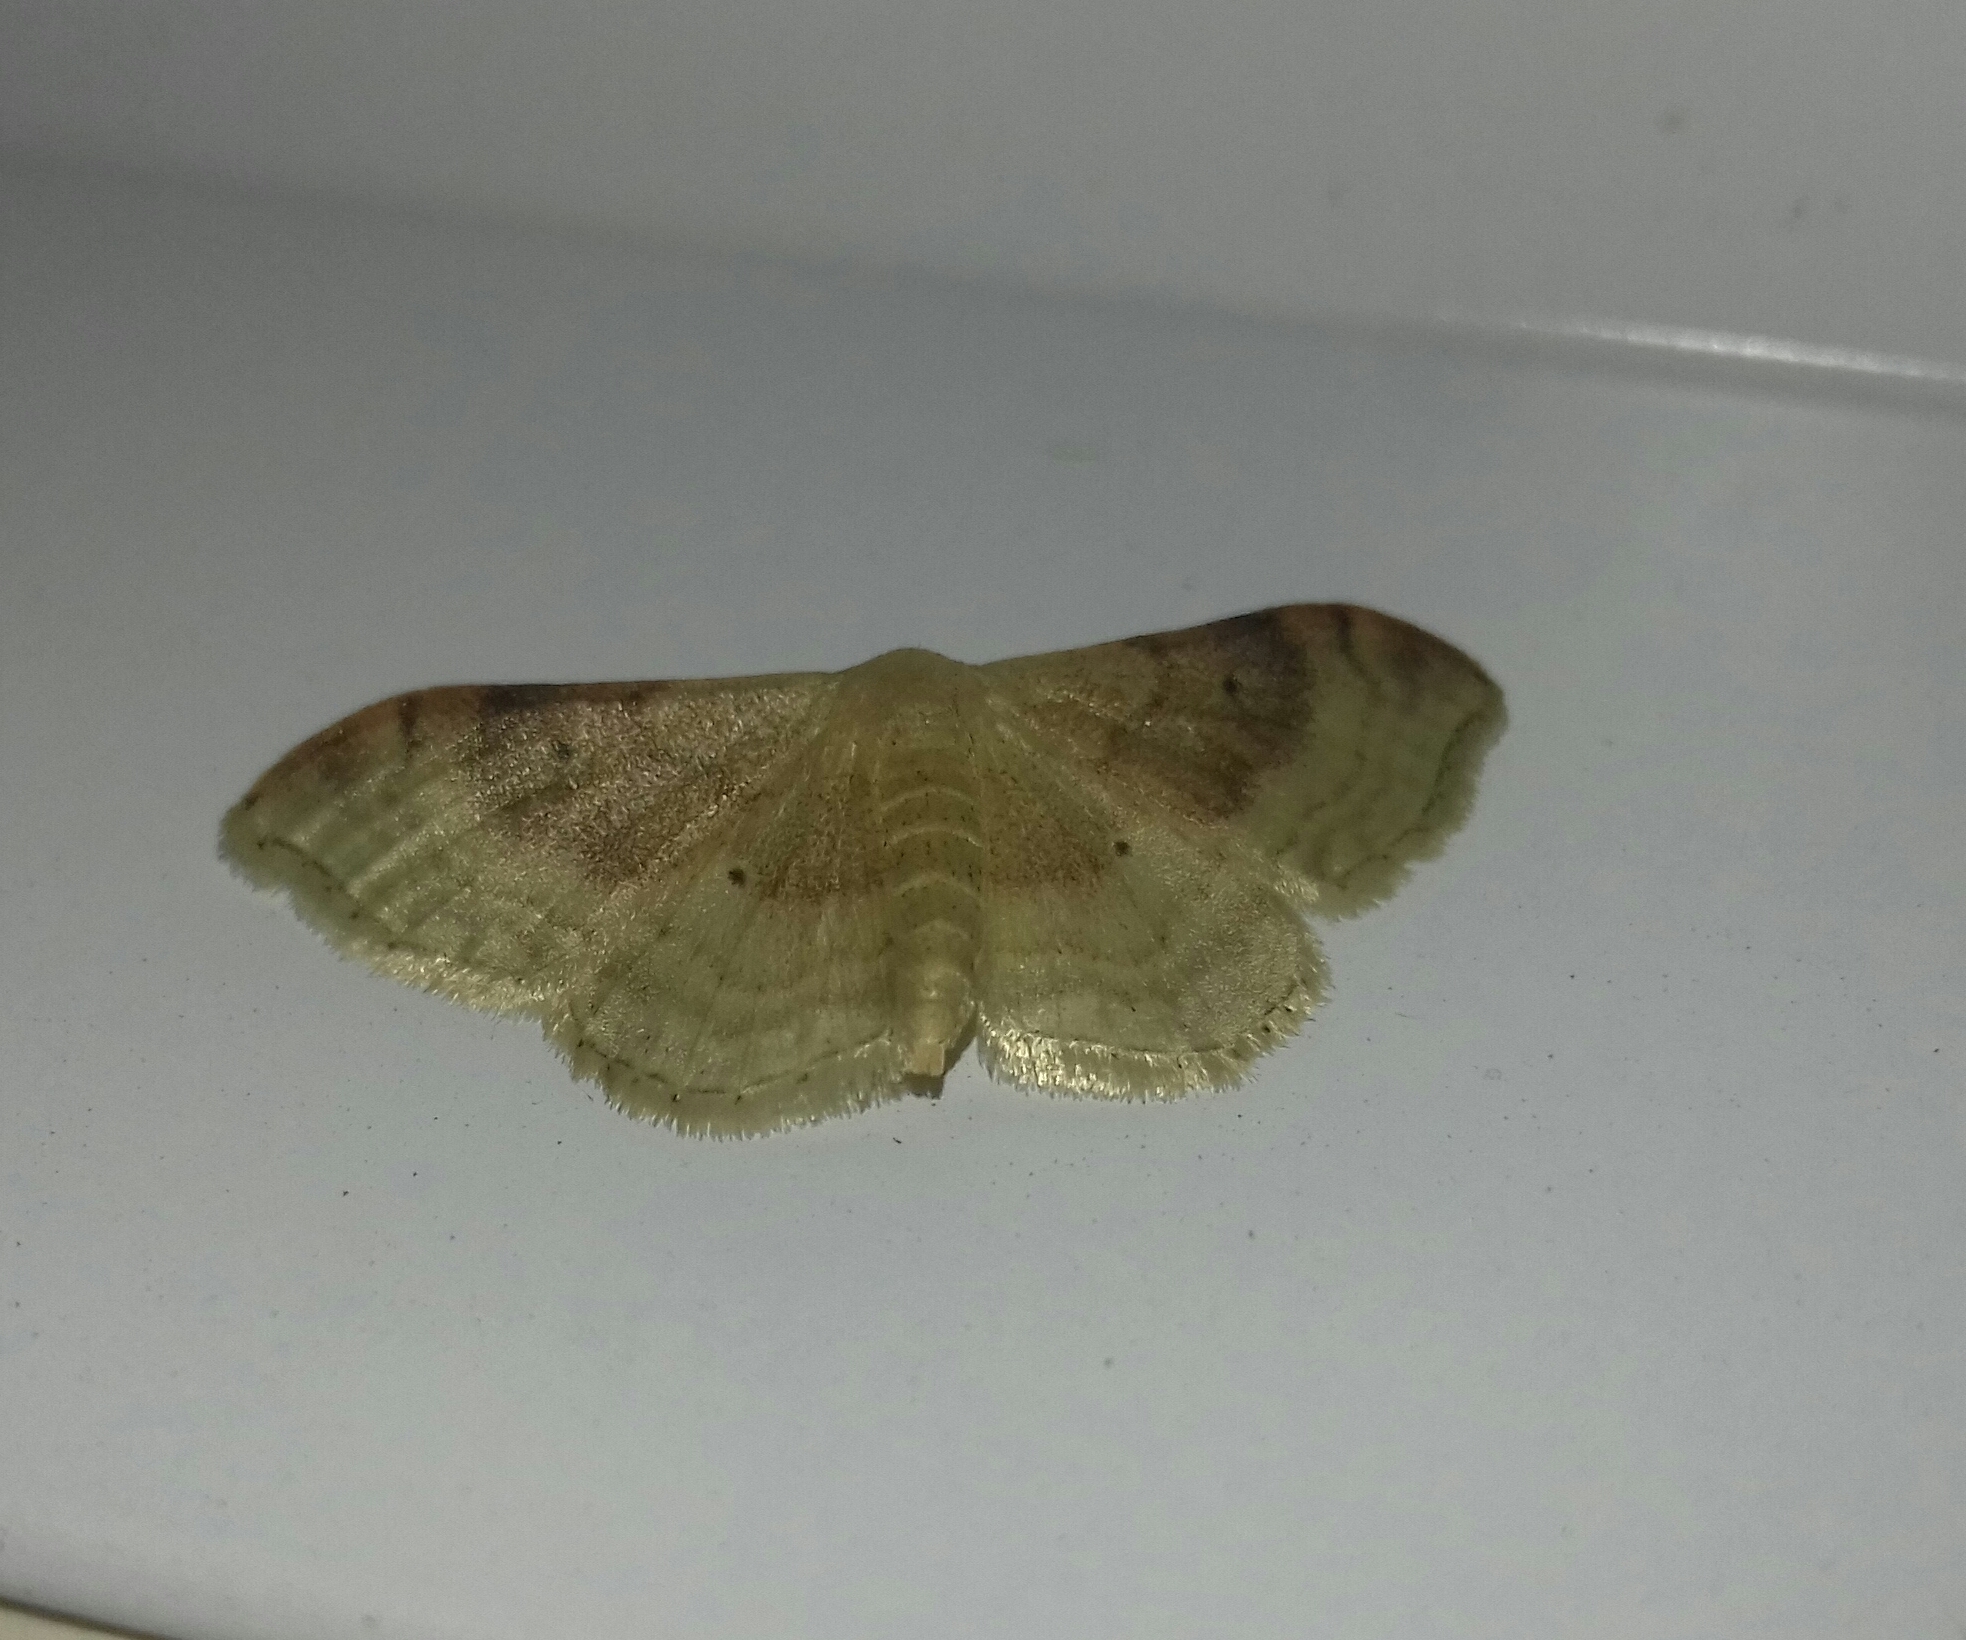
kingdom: Animalia
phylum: Arthropoda
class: Insecta
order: Lepidoptera
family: Geometridae
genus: Idaea
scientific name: Idaea degeneraria
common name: Portland ribbon wave
